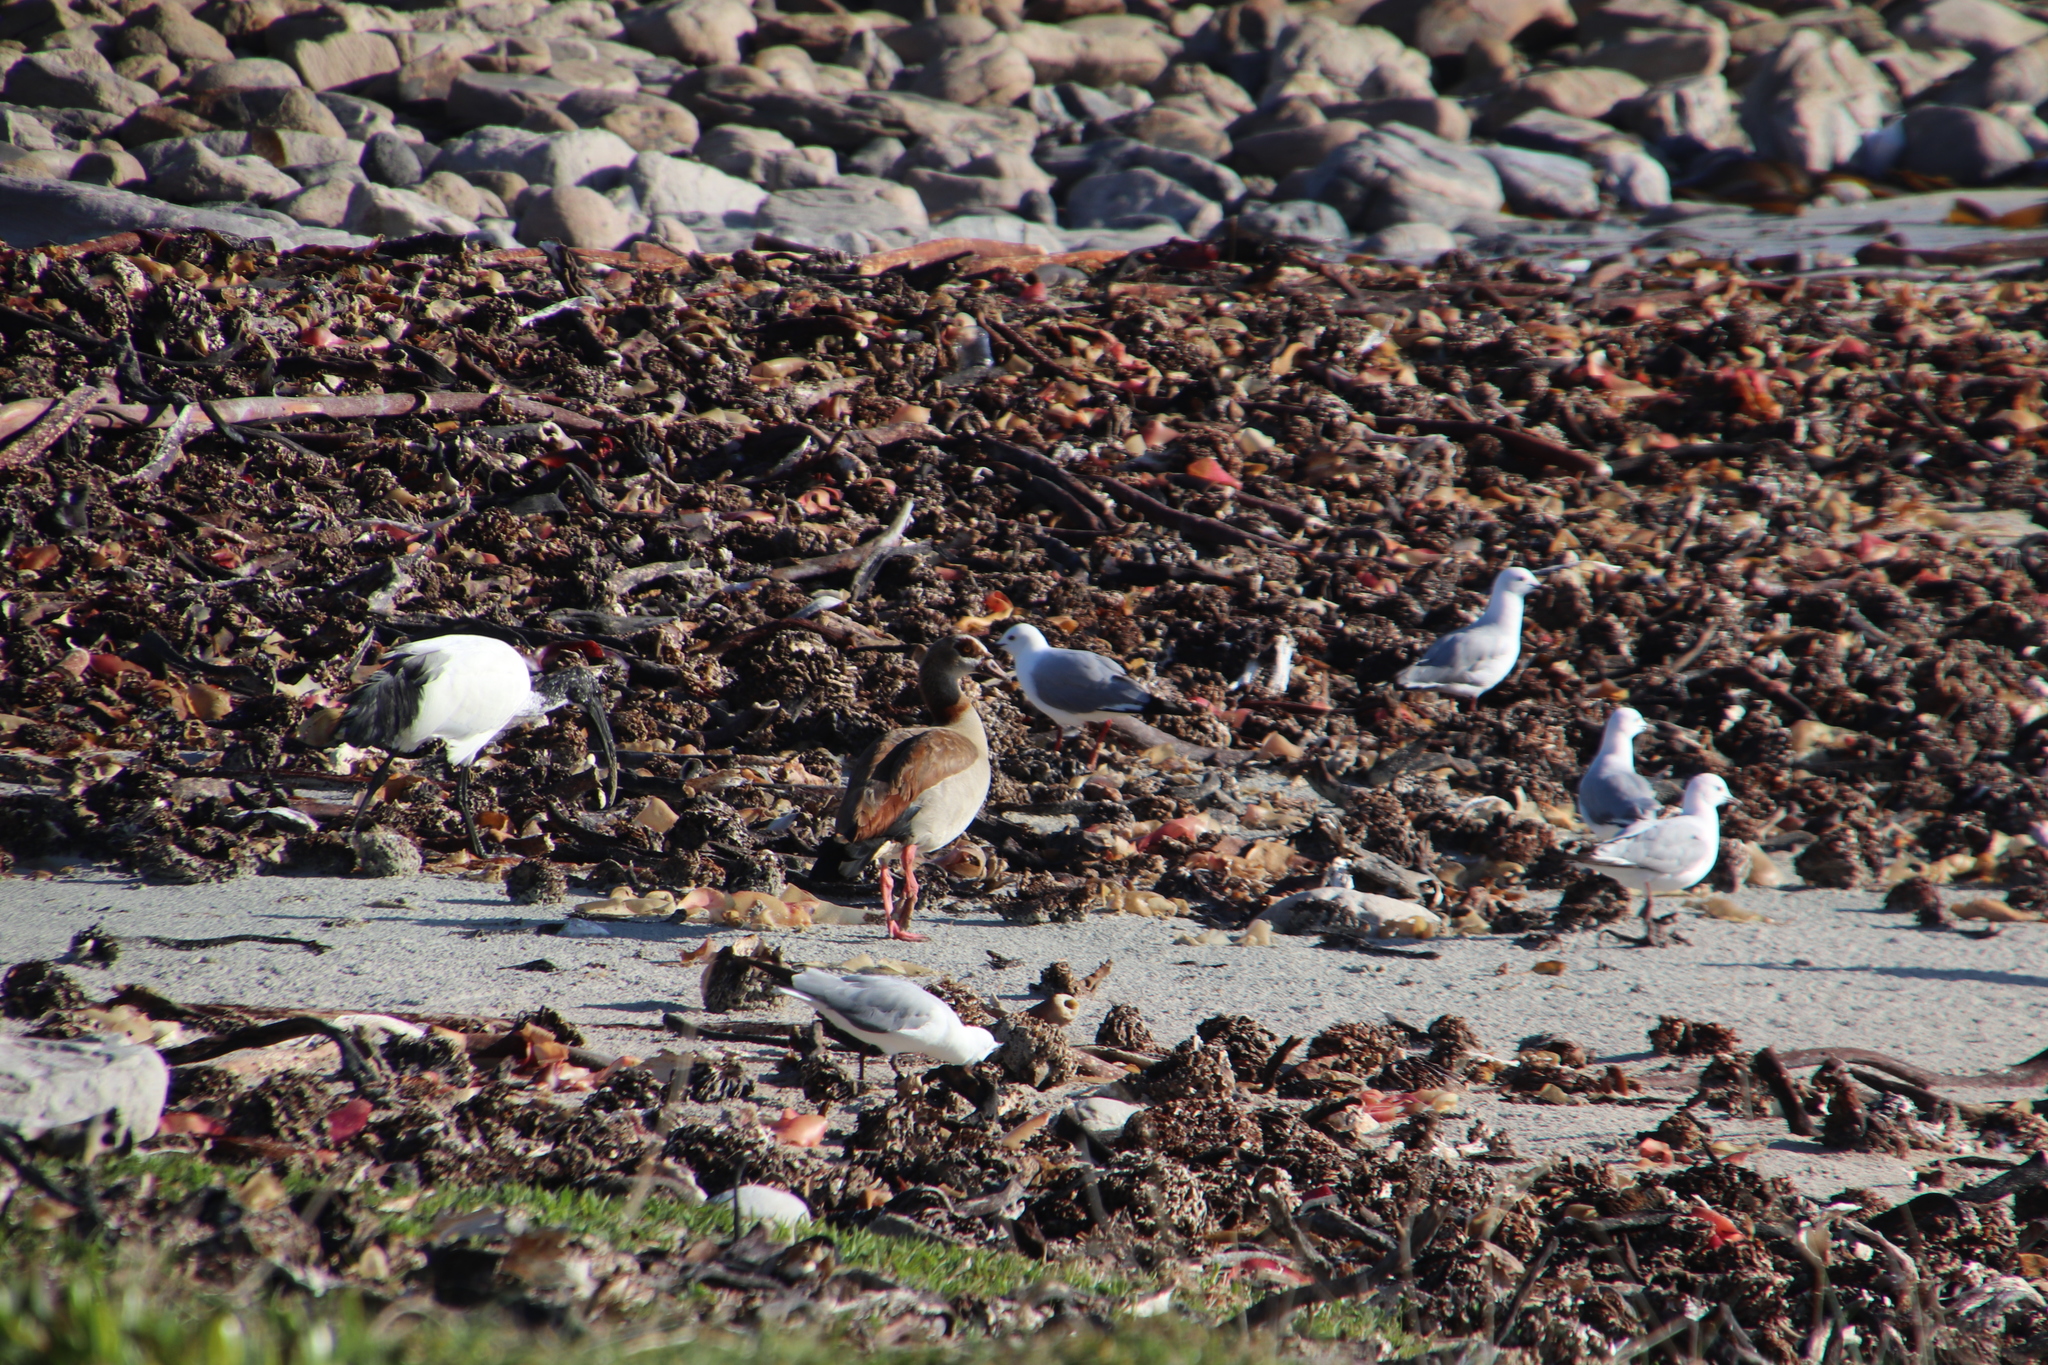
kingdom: Animalia
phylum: Chordata
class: Aves
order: Anseriformes
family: Anatidae
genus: Alopochen
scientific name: Alopochen aegyptiaca
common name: Egyptian goose
